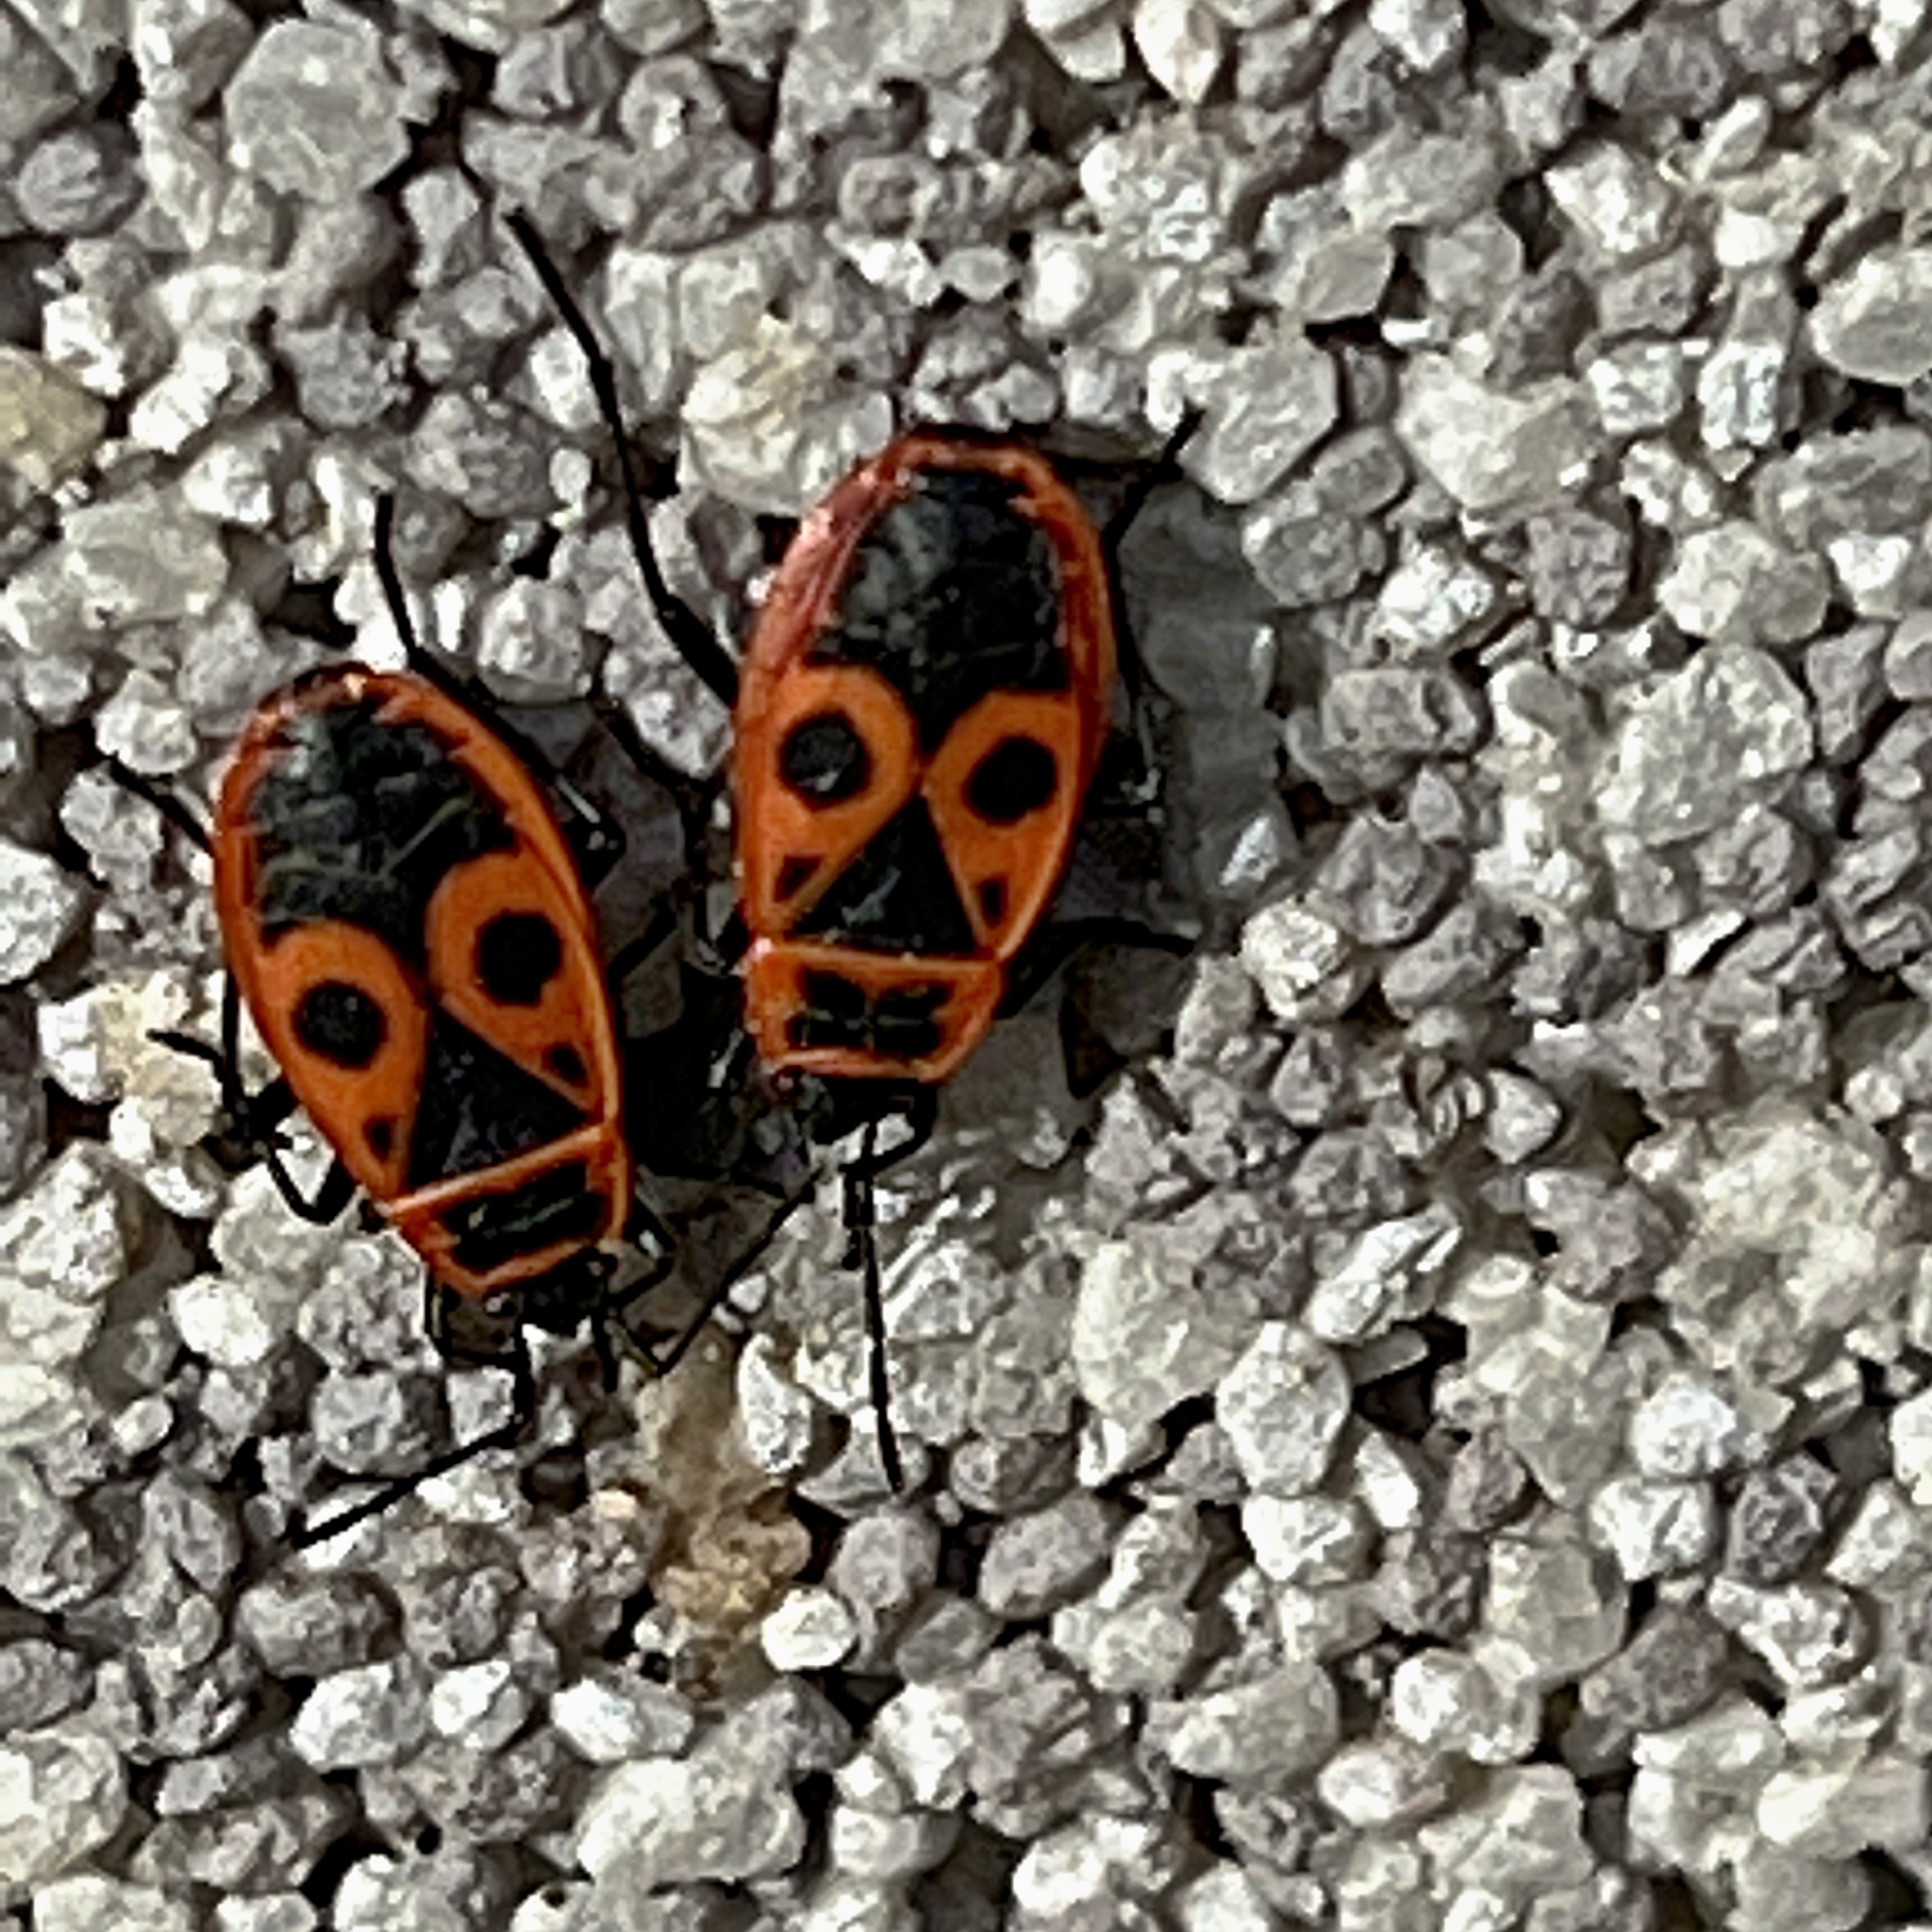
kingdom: Animalia
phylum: Arthropoda
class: Insecta
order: Hemiptera
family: Pyrrhocoridae
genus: Pyrrhocoris
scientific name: Pyrrhocoris apterus
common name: Firebug
